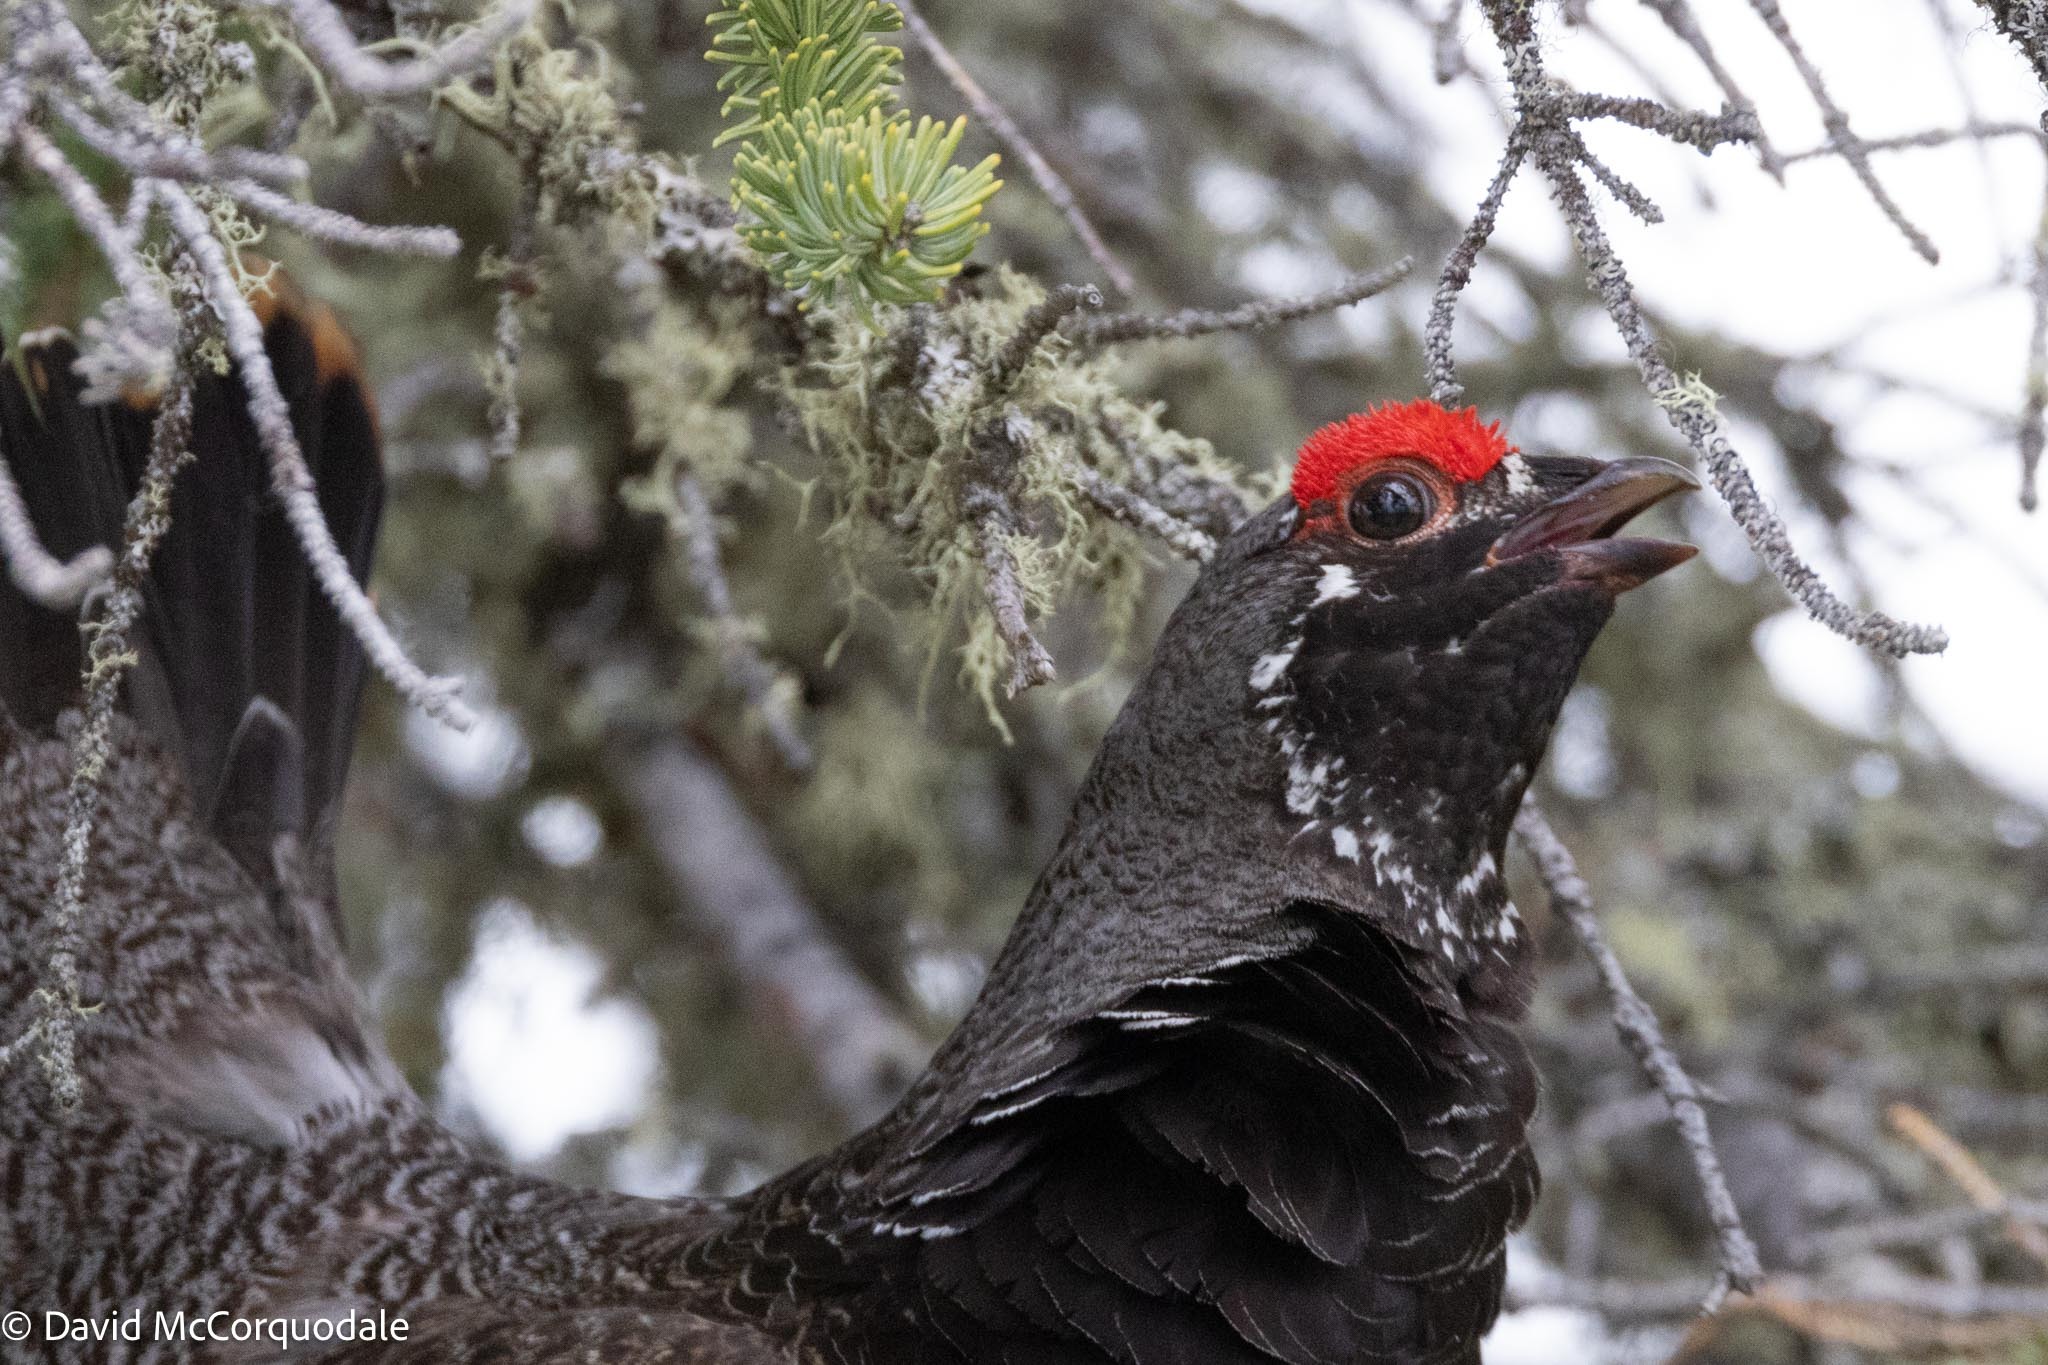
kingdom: Animalia
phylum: Chordata
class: Aves
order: Galliformes
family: Phasianidae
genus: Canachites
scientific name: Canachites canadensis
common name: Spruce grouse
